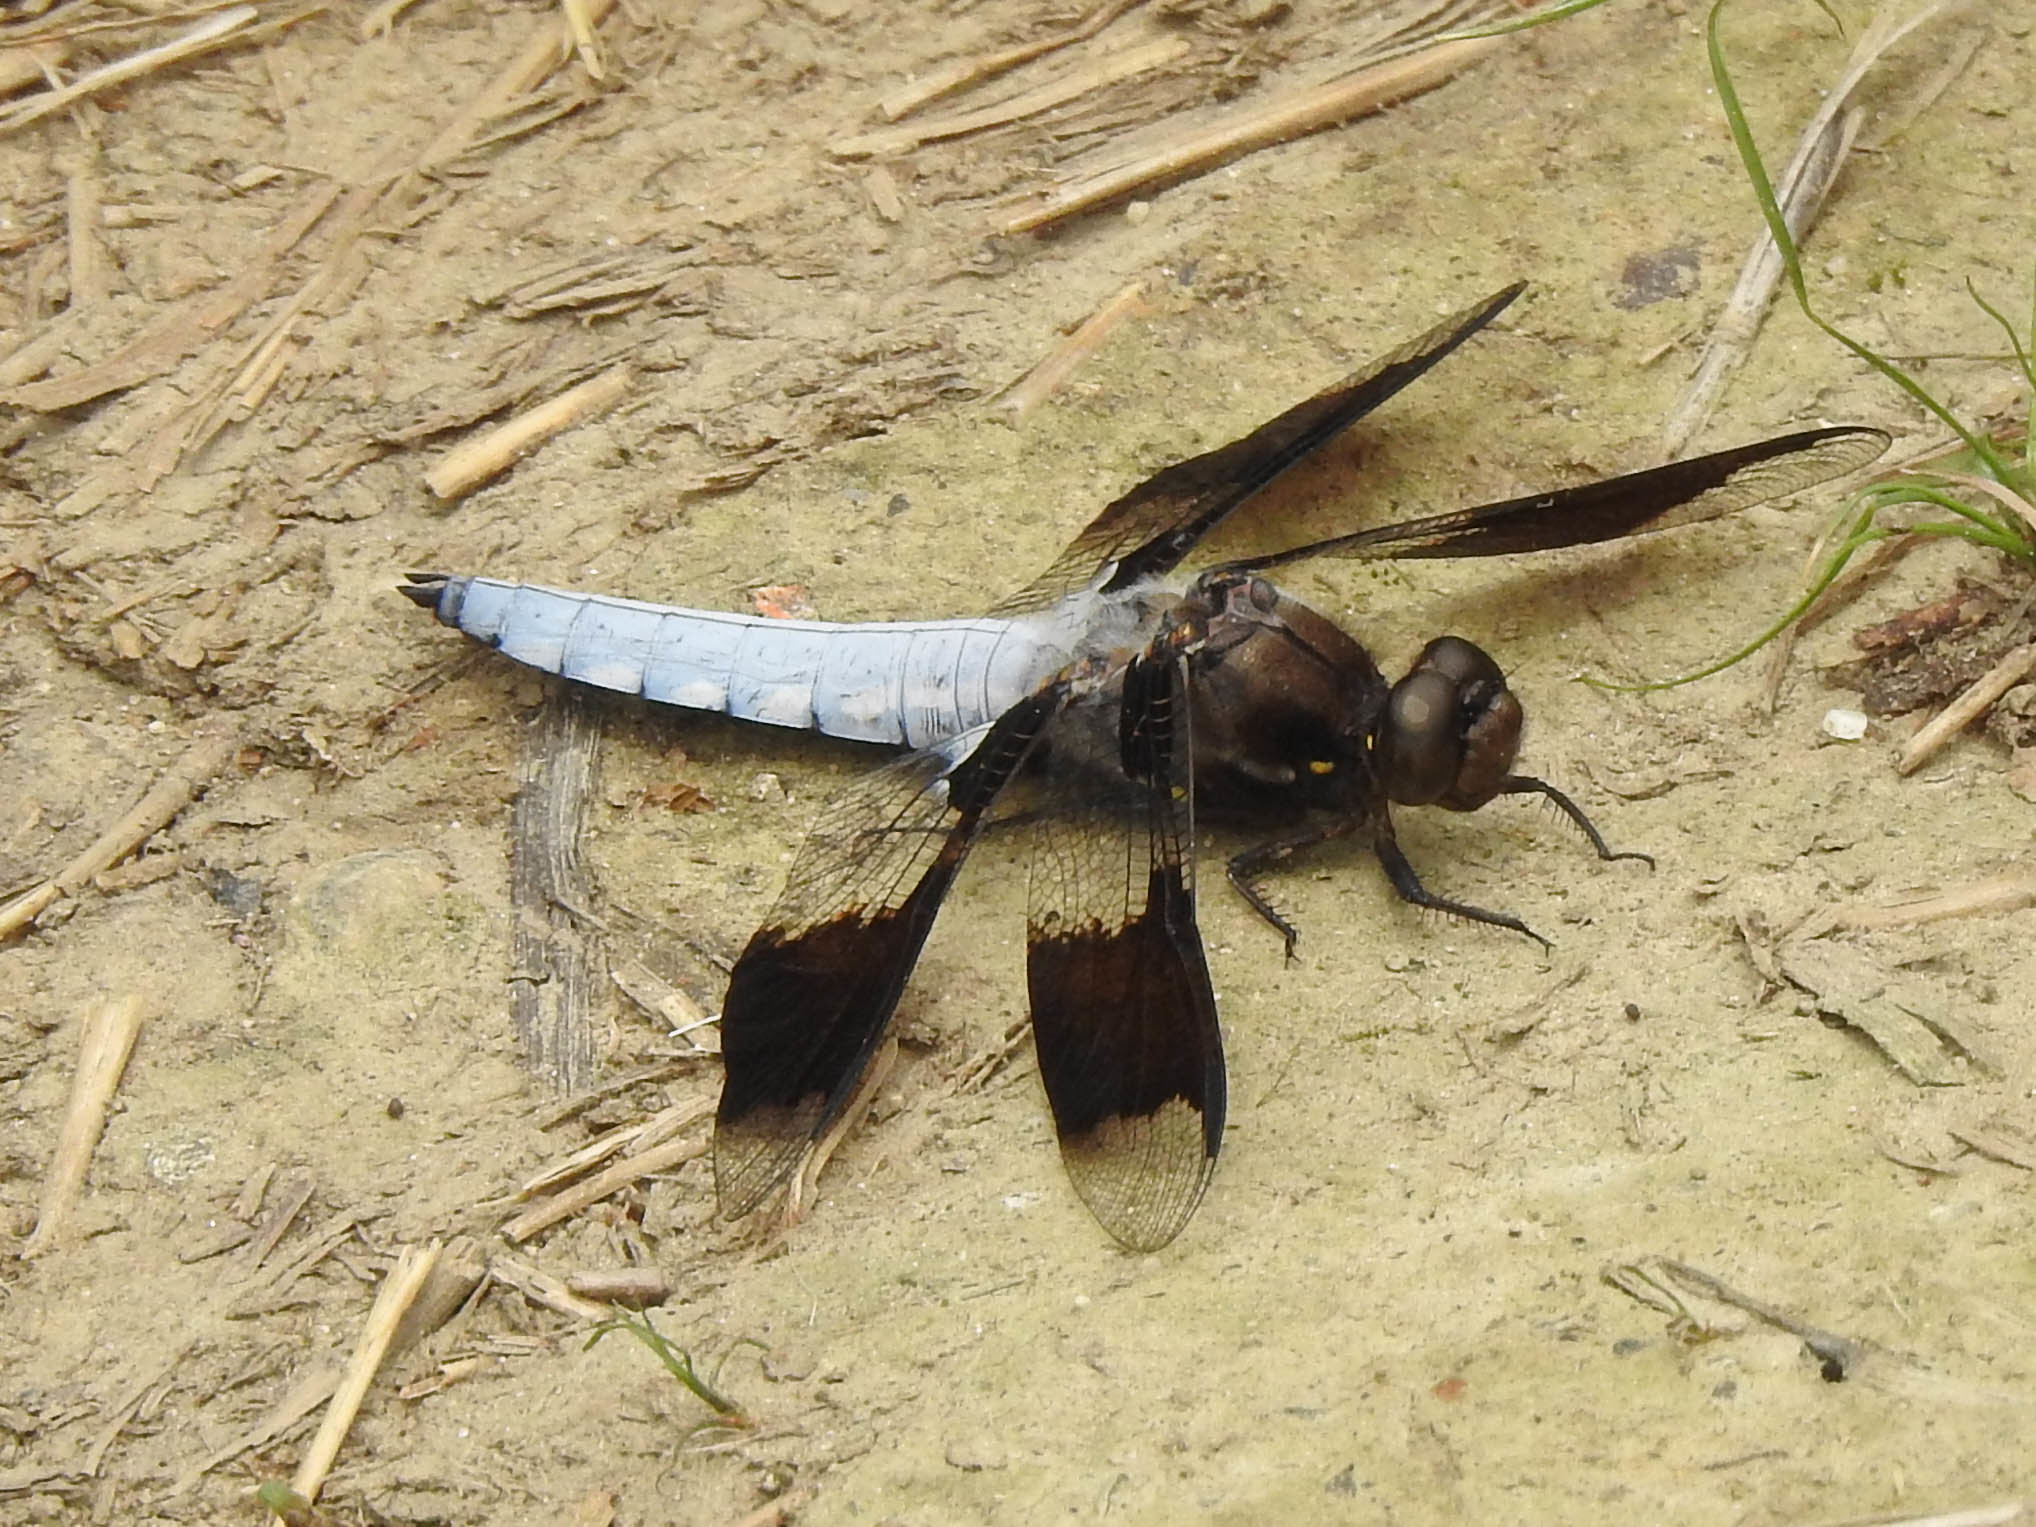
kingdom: Animalia
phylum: Arthropoda
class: Insecta
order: Odonata
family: Libellulidae
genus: Plathemis
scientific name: Plathemis lydia
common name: Common whitetail
